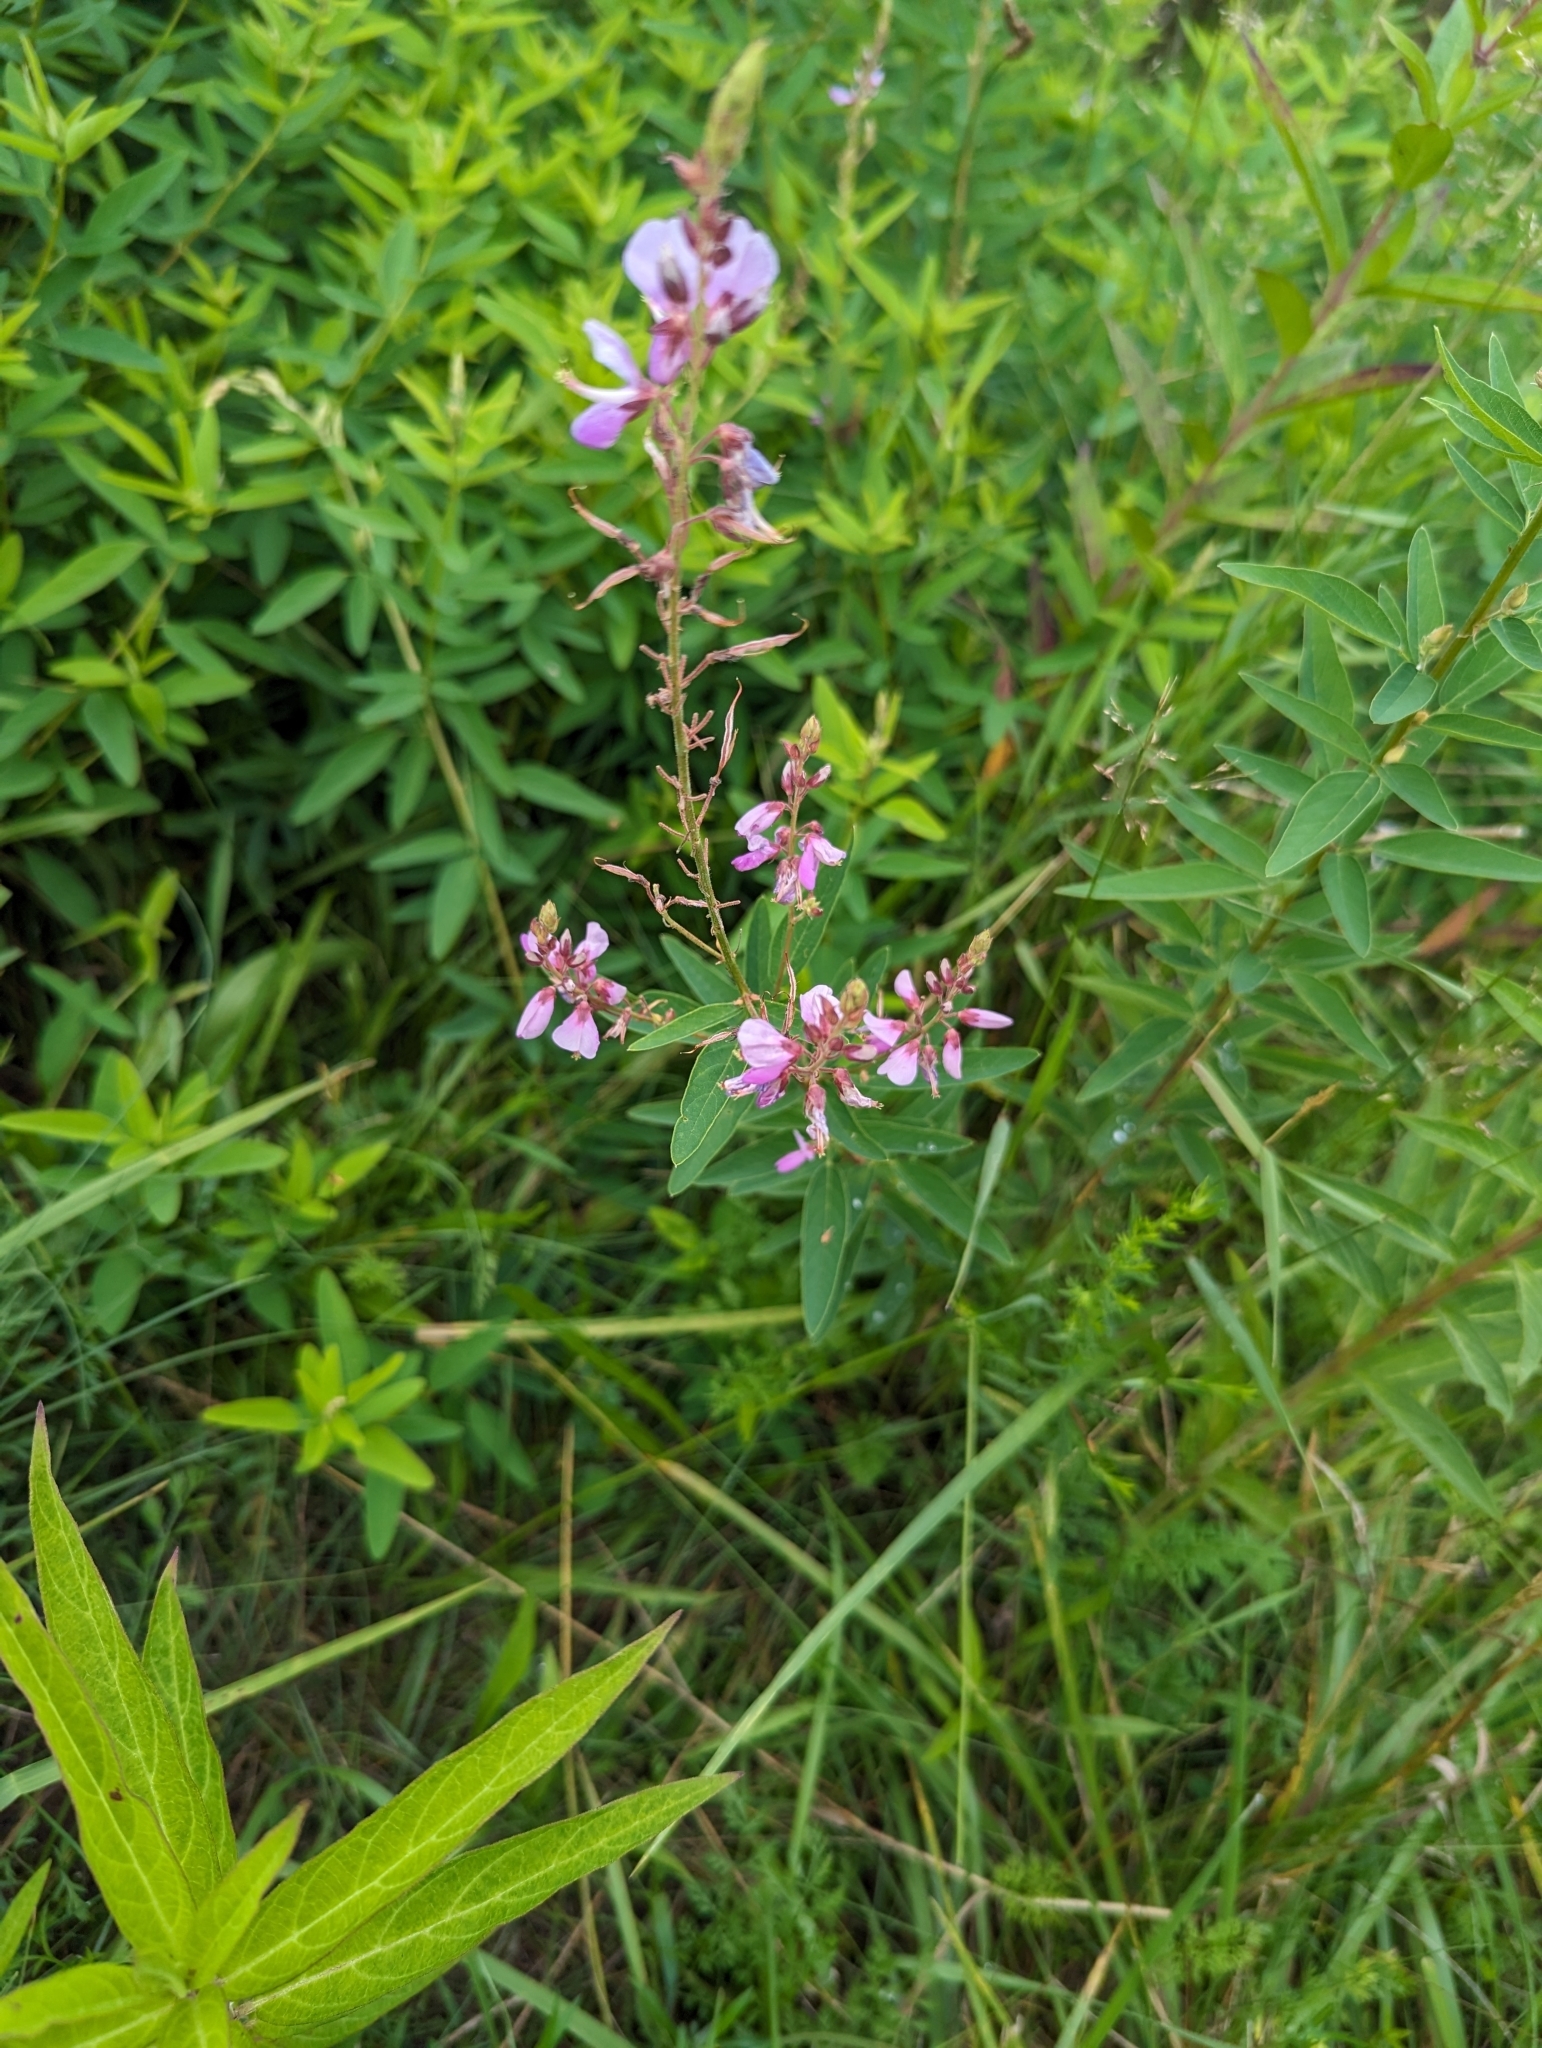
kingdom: Plantae
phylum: Tracheophyta
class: Magnoliopsida
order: Fabales
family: Fabaceae
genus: Desmodium
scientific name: Desmodium canadense
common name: Canada tick-trefoil
